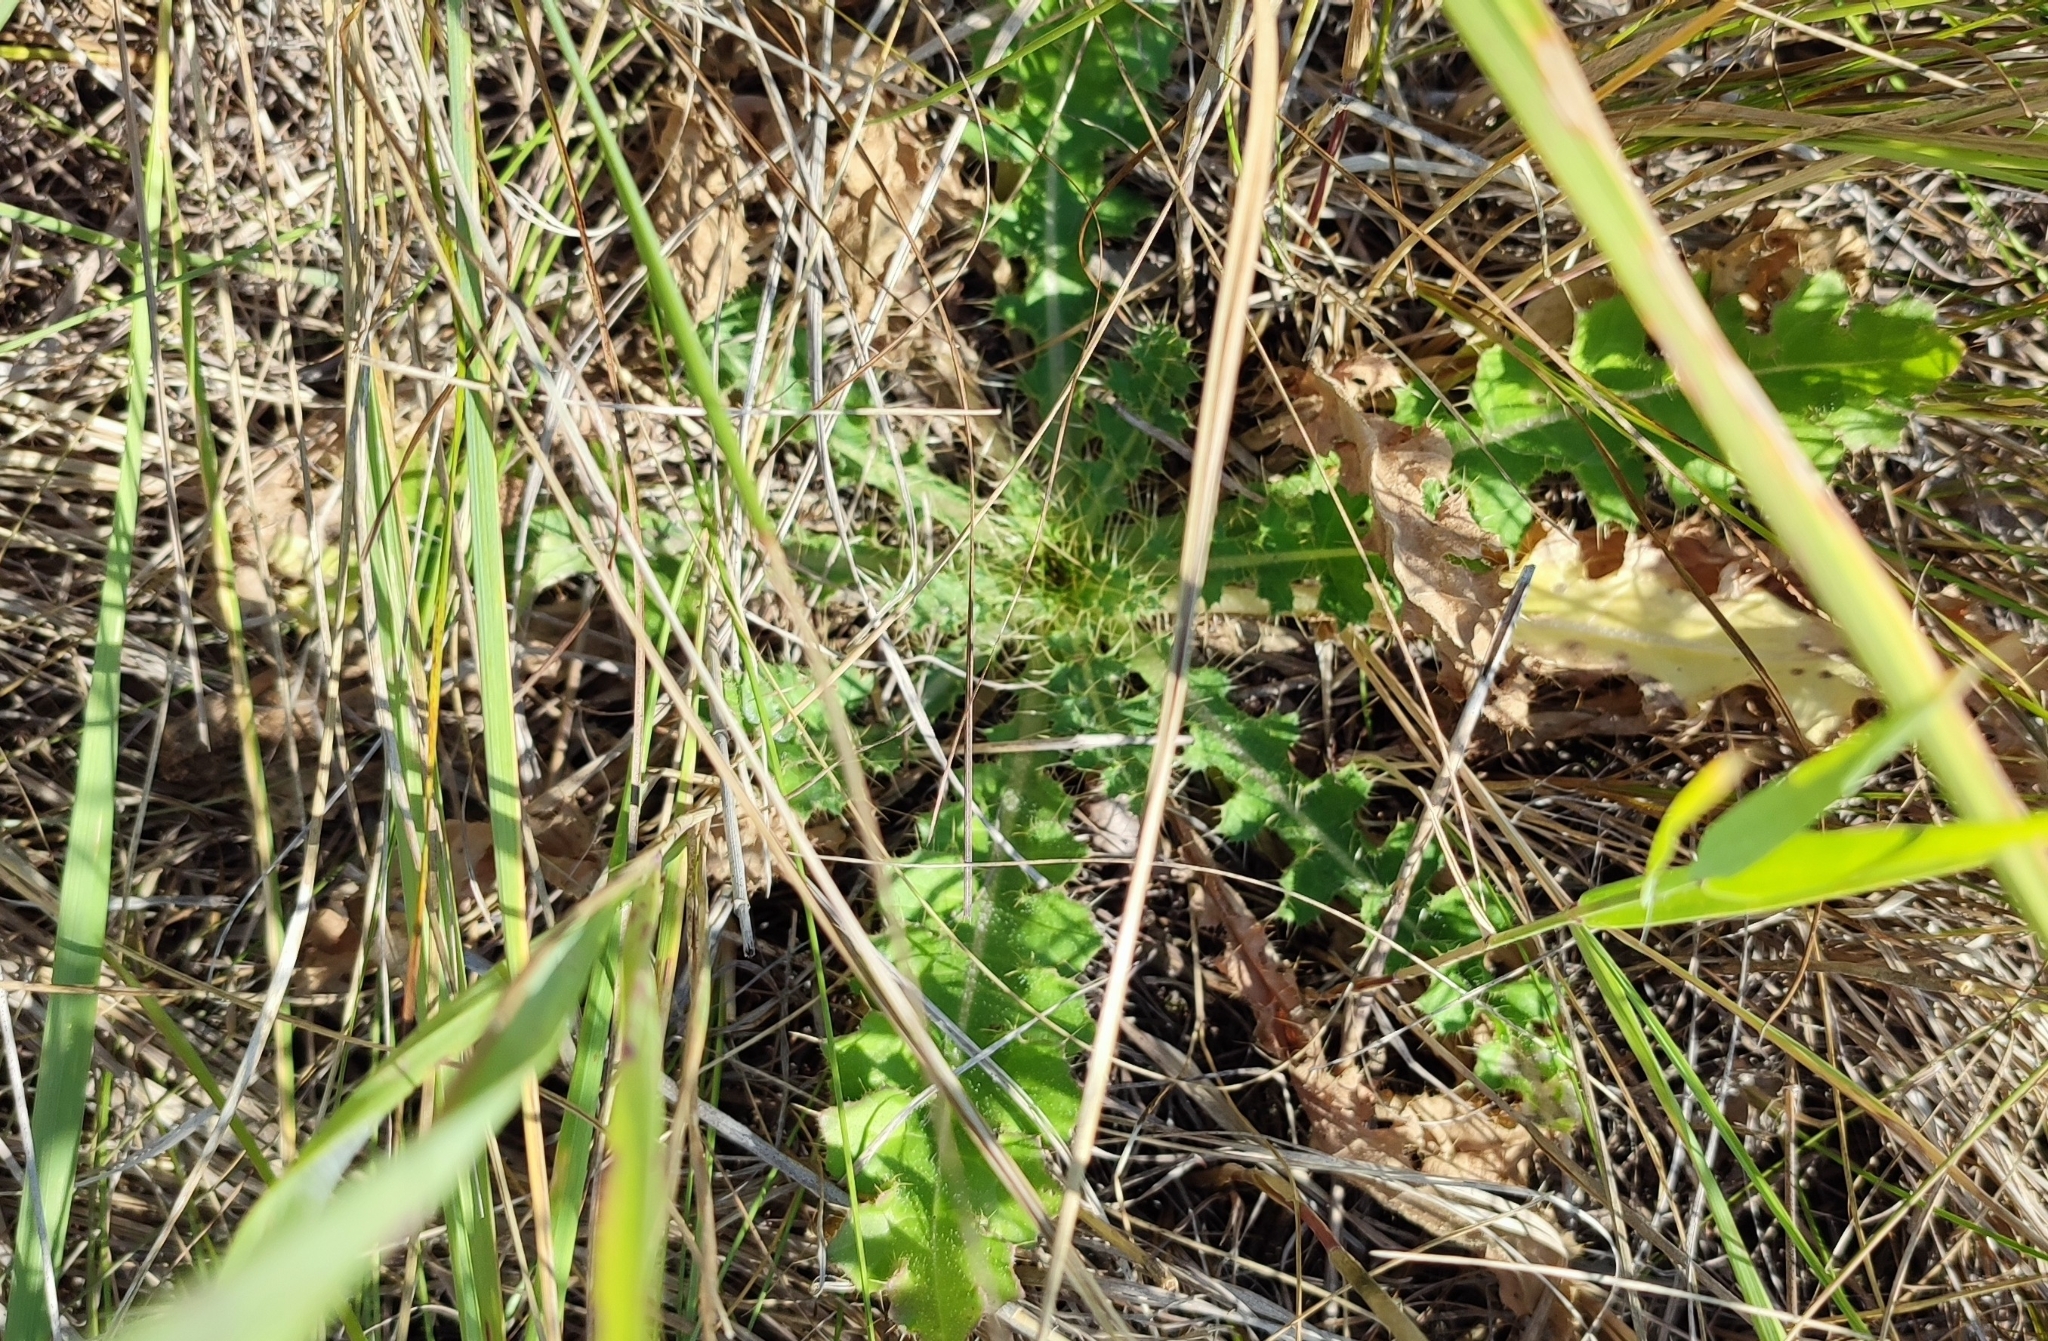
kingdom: Plantae
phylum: Tracheophyta
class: Magnoliopsida
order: Asterales
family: Asteraceae
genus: Cirsium
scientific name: Cirsium esculentum
